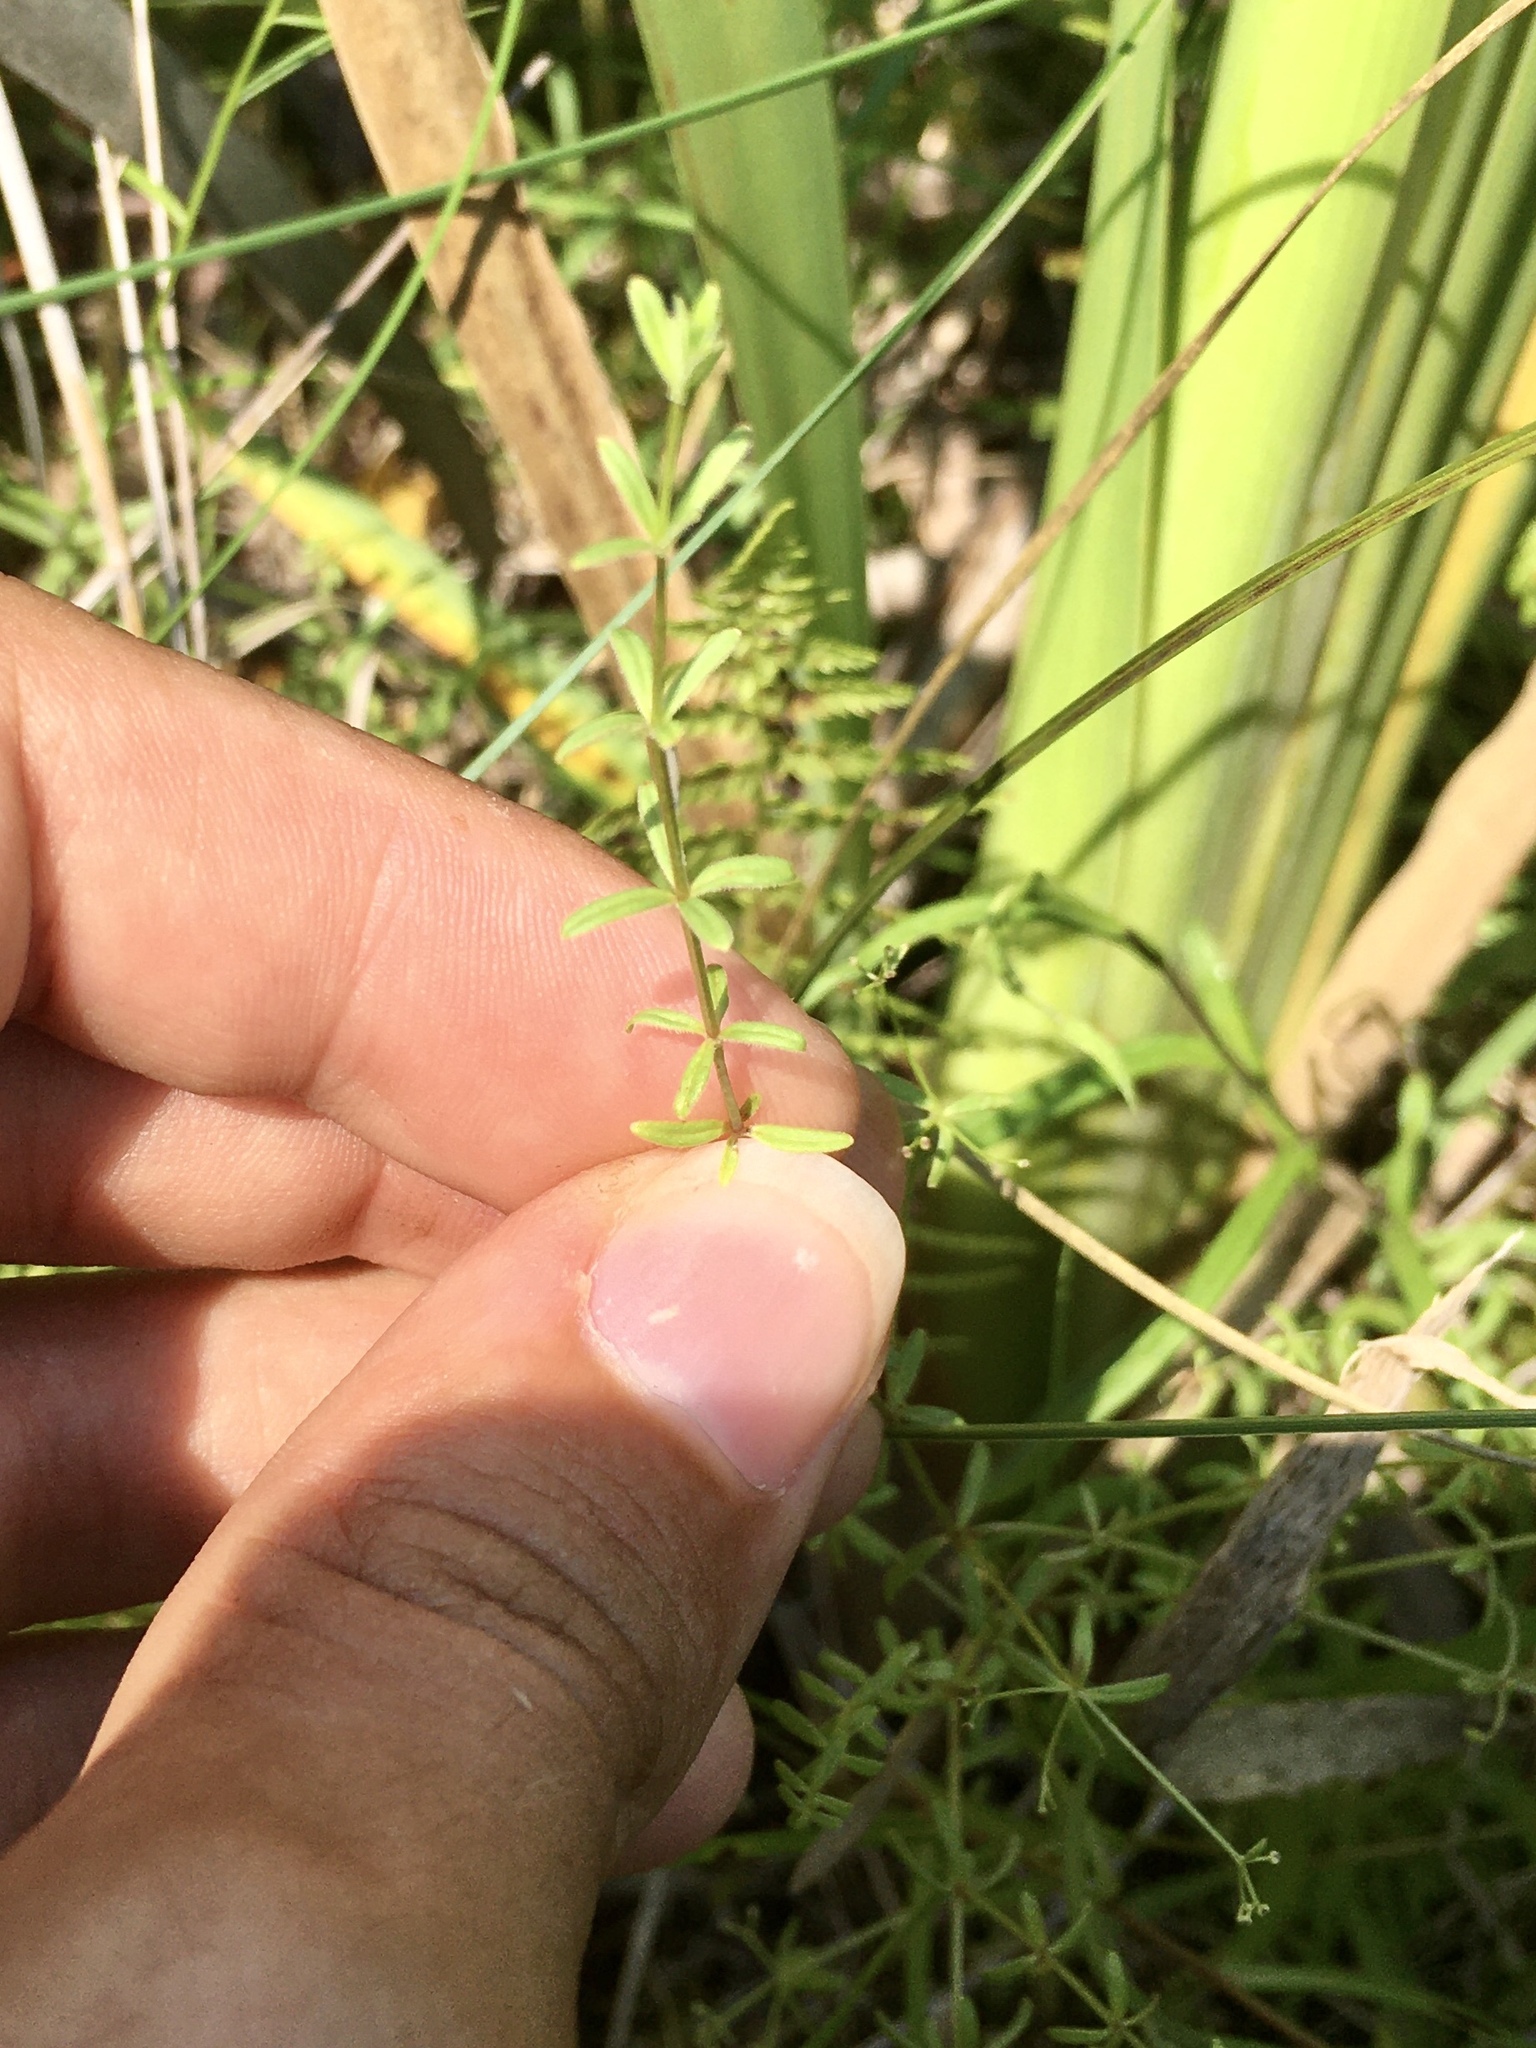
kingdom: Plantae
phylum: Tracheophyta
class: Magnoliopsida
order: Gentianales
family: Rubiaceae
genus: Galium
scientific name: Galium labradoricum
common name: Labrador bedstraw
